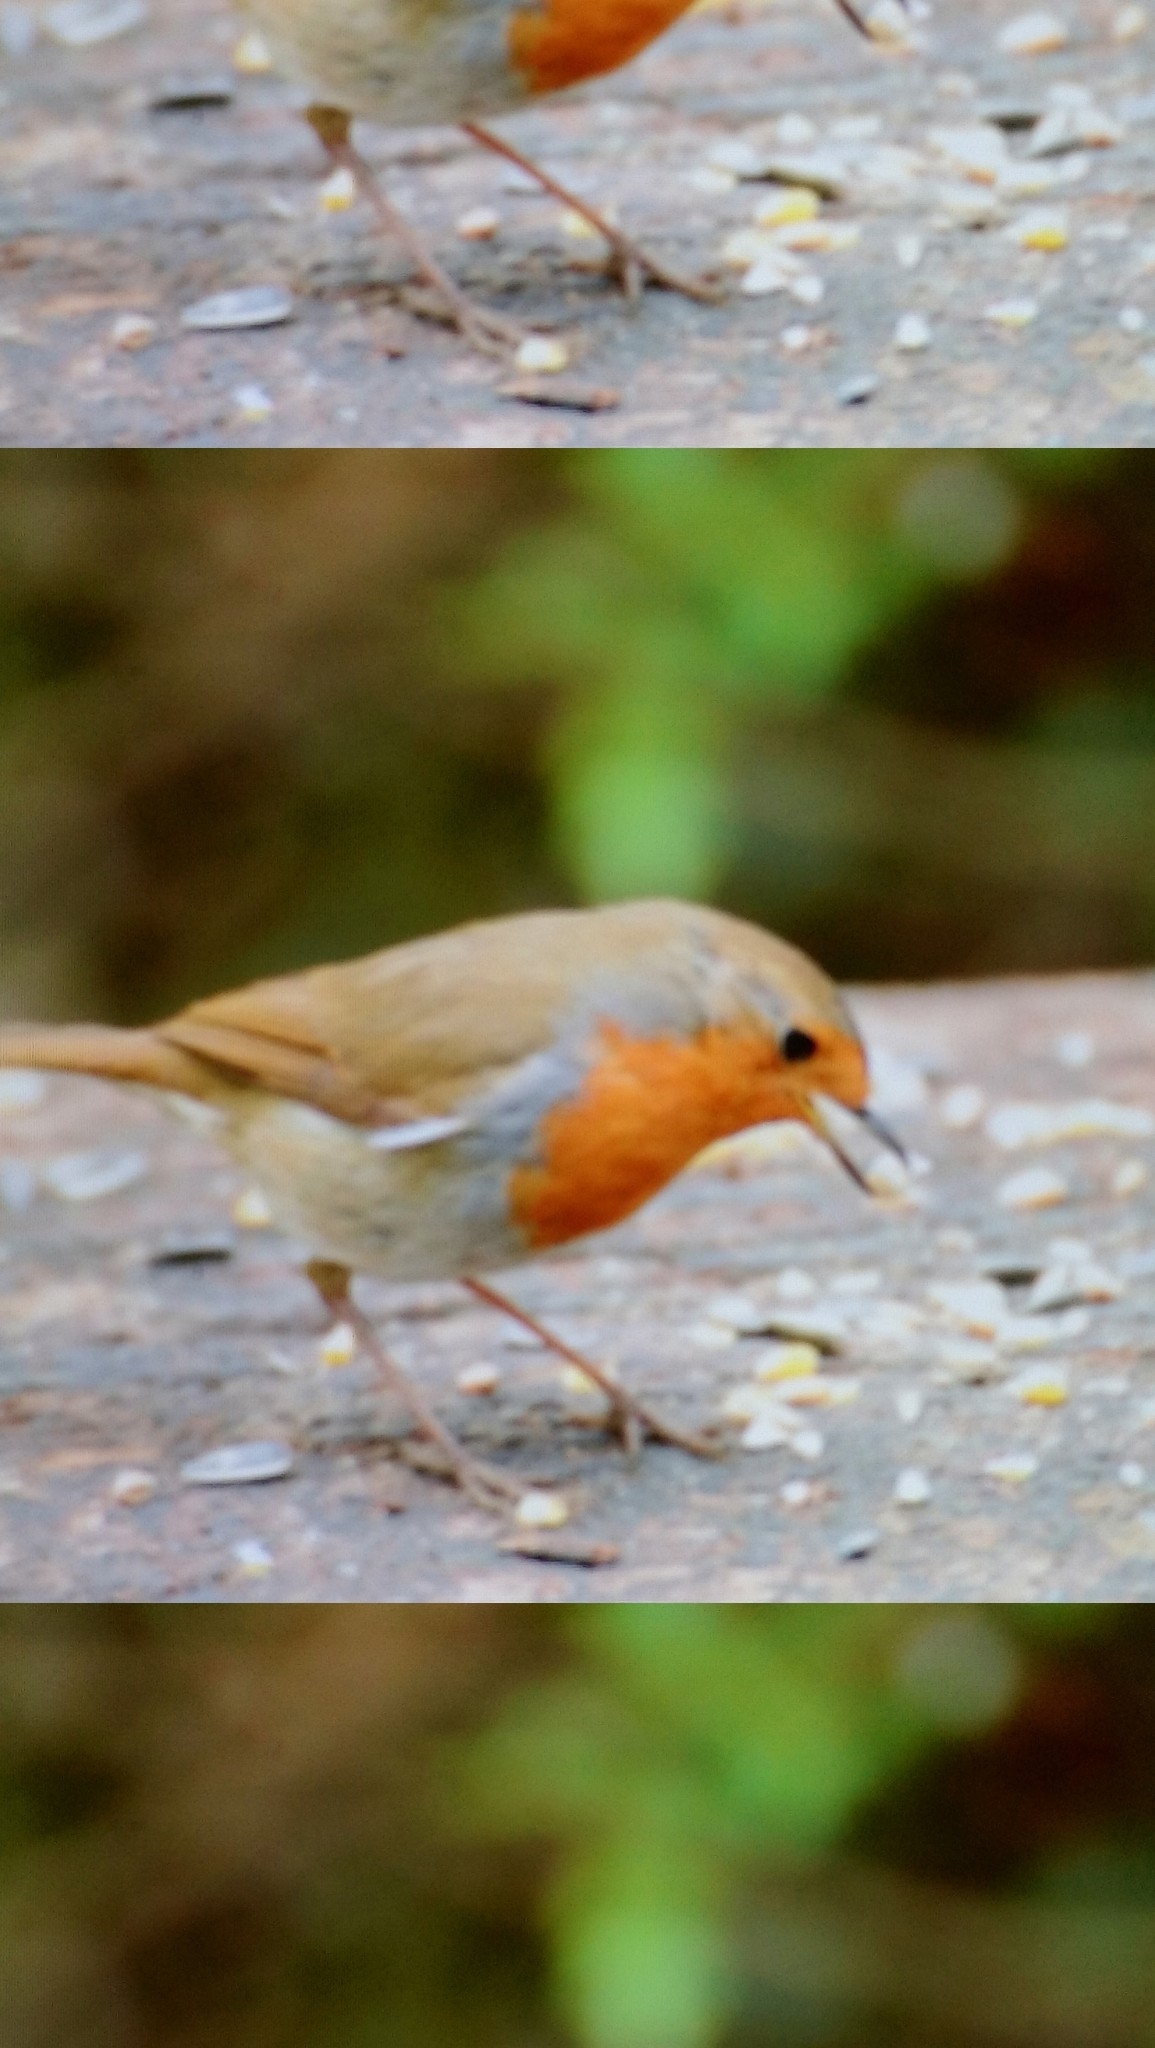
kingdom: Animalia
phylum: Chordata
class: Aves
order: Passeriformes
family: Muscicapidae
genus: Erithacus
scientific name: Erithacus rubecula
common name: European robin
